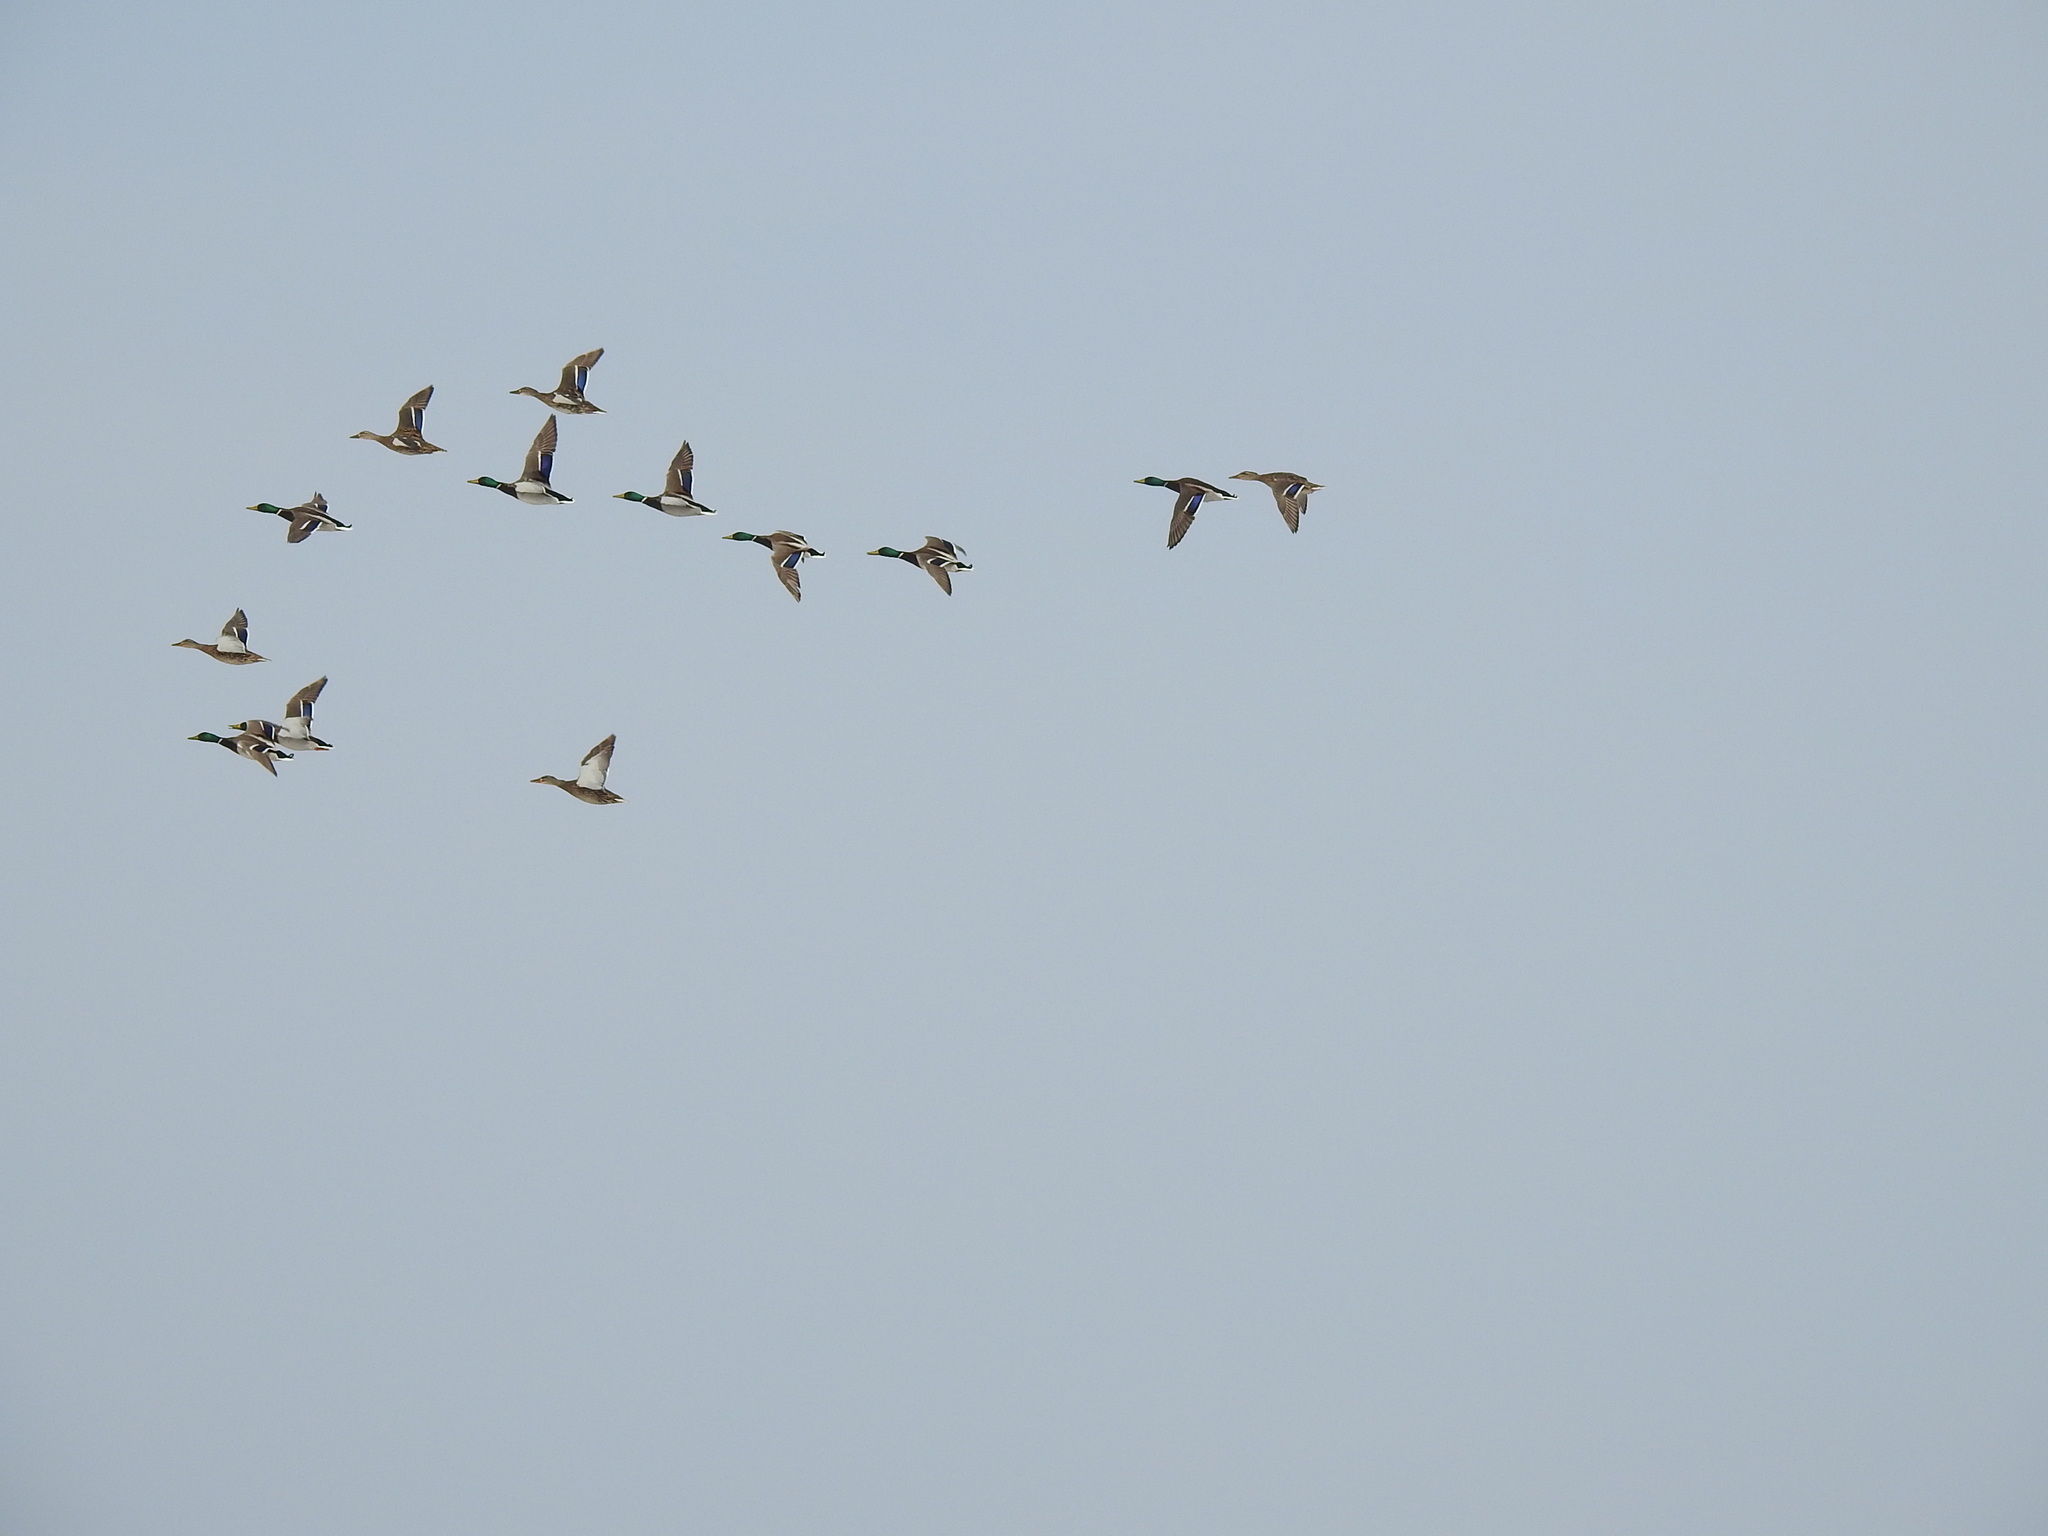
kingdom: Animalia
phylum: Chordata
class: Aves
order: Anseriformes
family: Anatidae
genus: Anas
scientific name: Anas platyrhynchos
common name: Mallard
